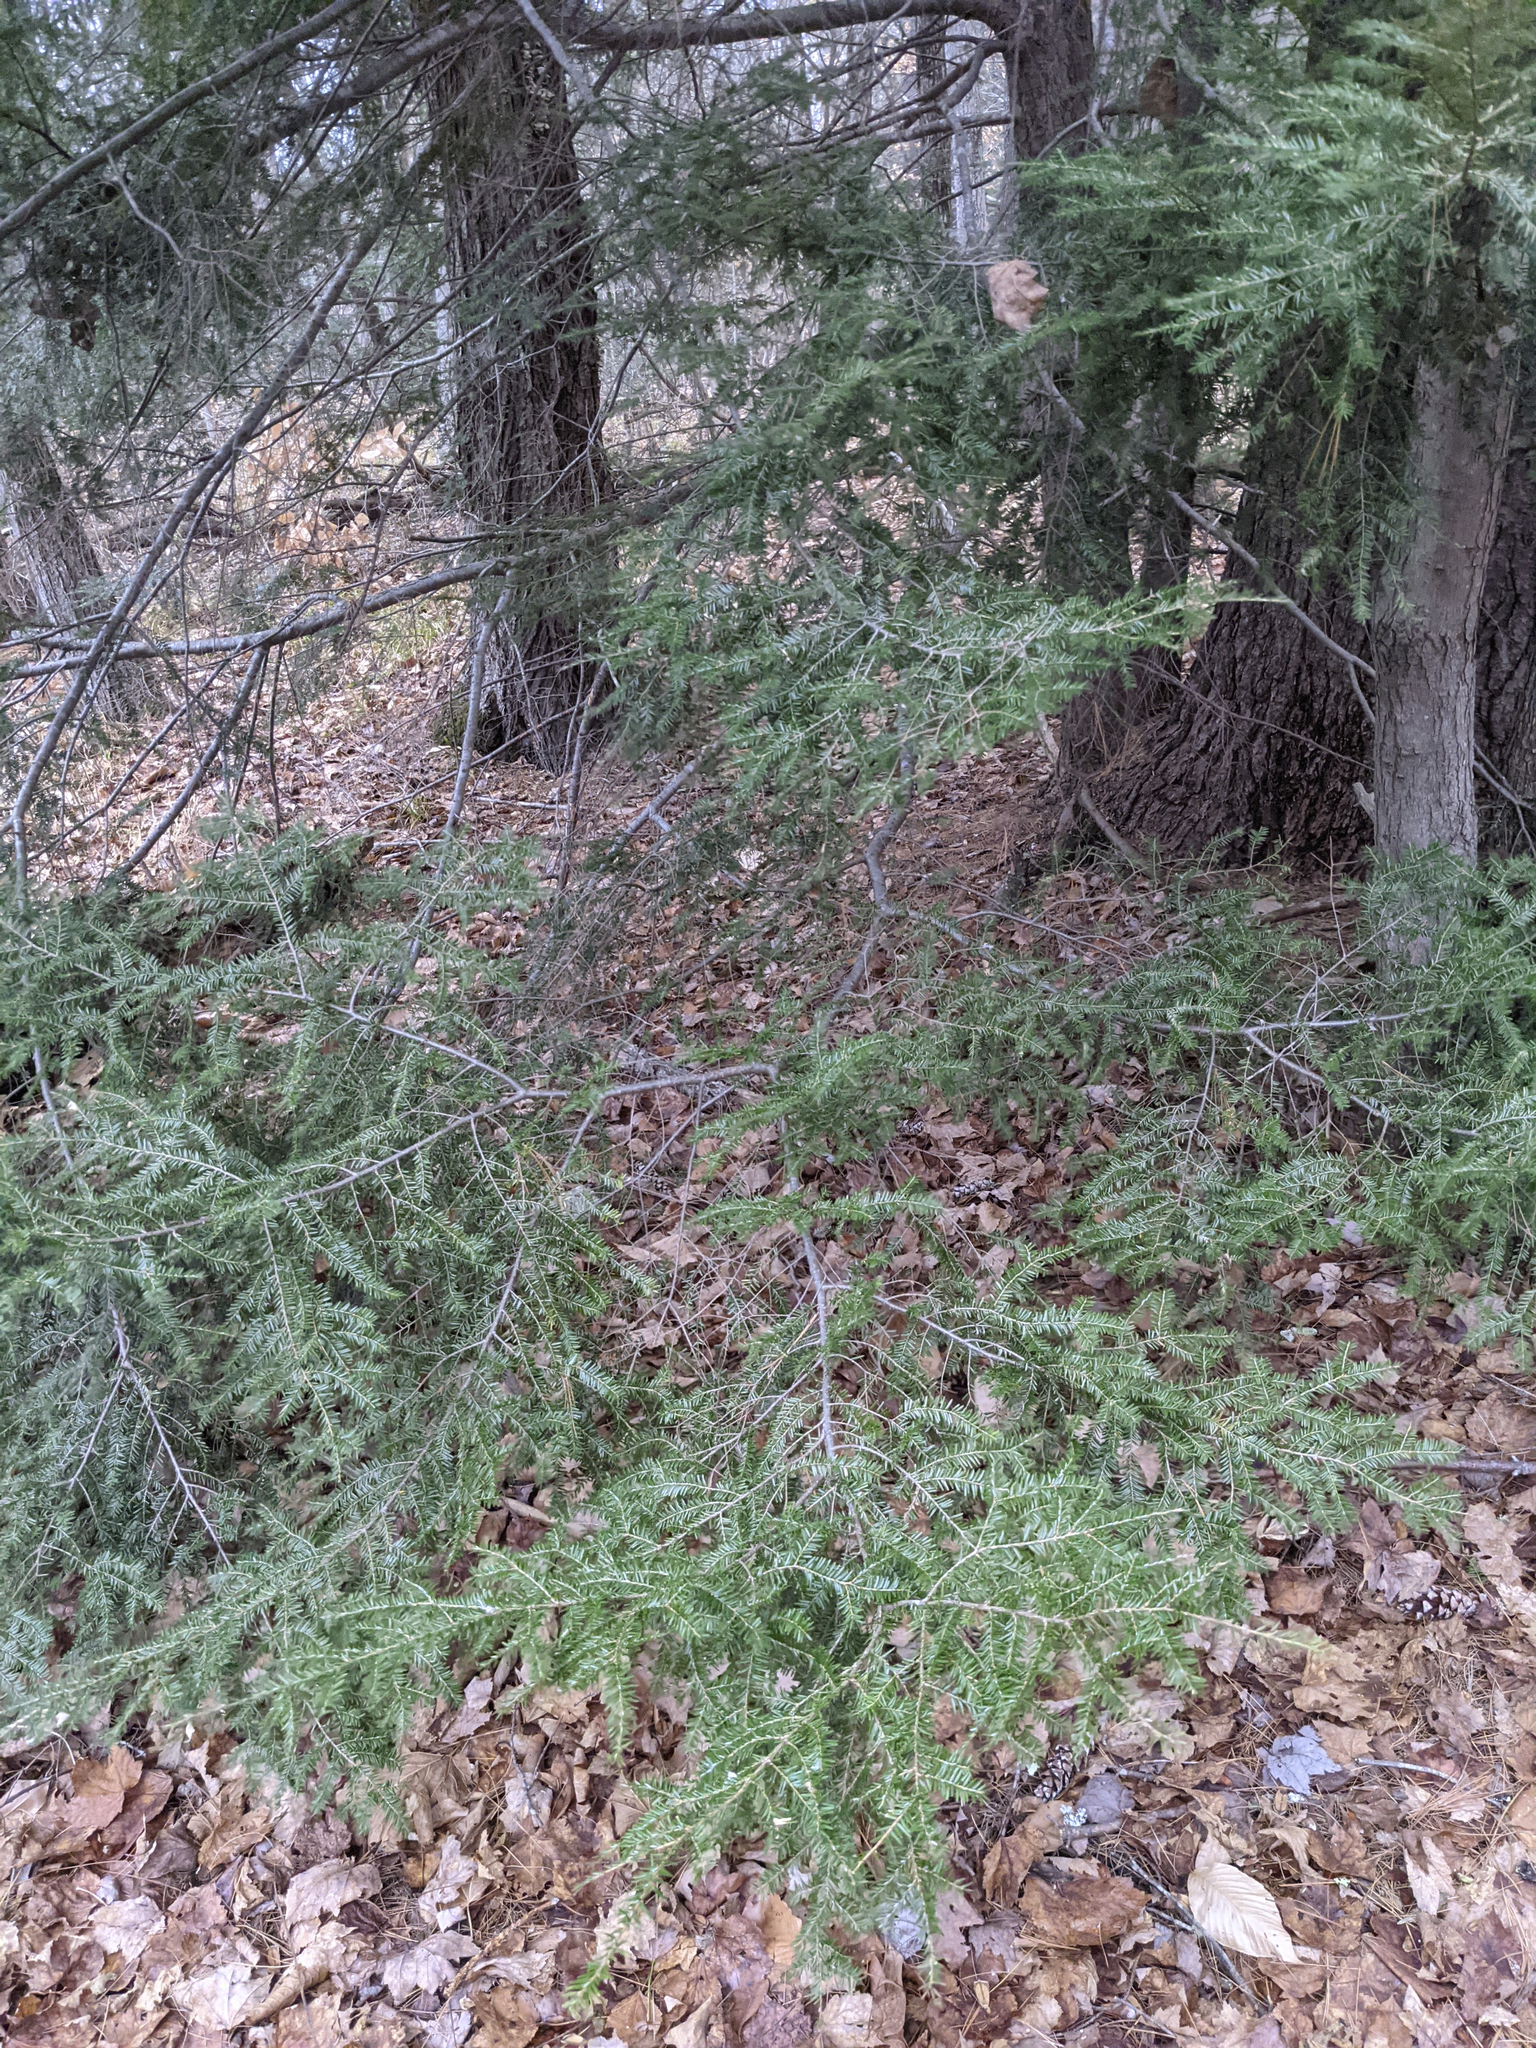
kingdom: Plantae
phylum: Tracheophyta
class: Pinopsida
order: Pinales
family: Pinaceae
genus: Tsuga
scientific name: Tsuga canadensis
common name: Eastern hemlock
